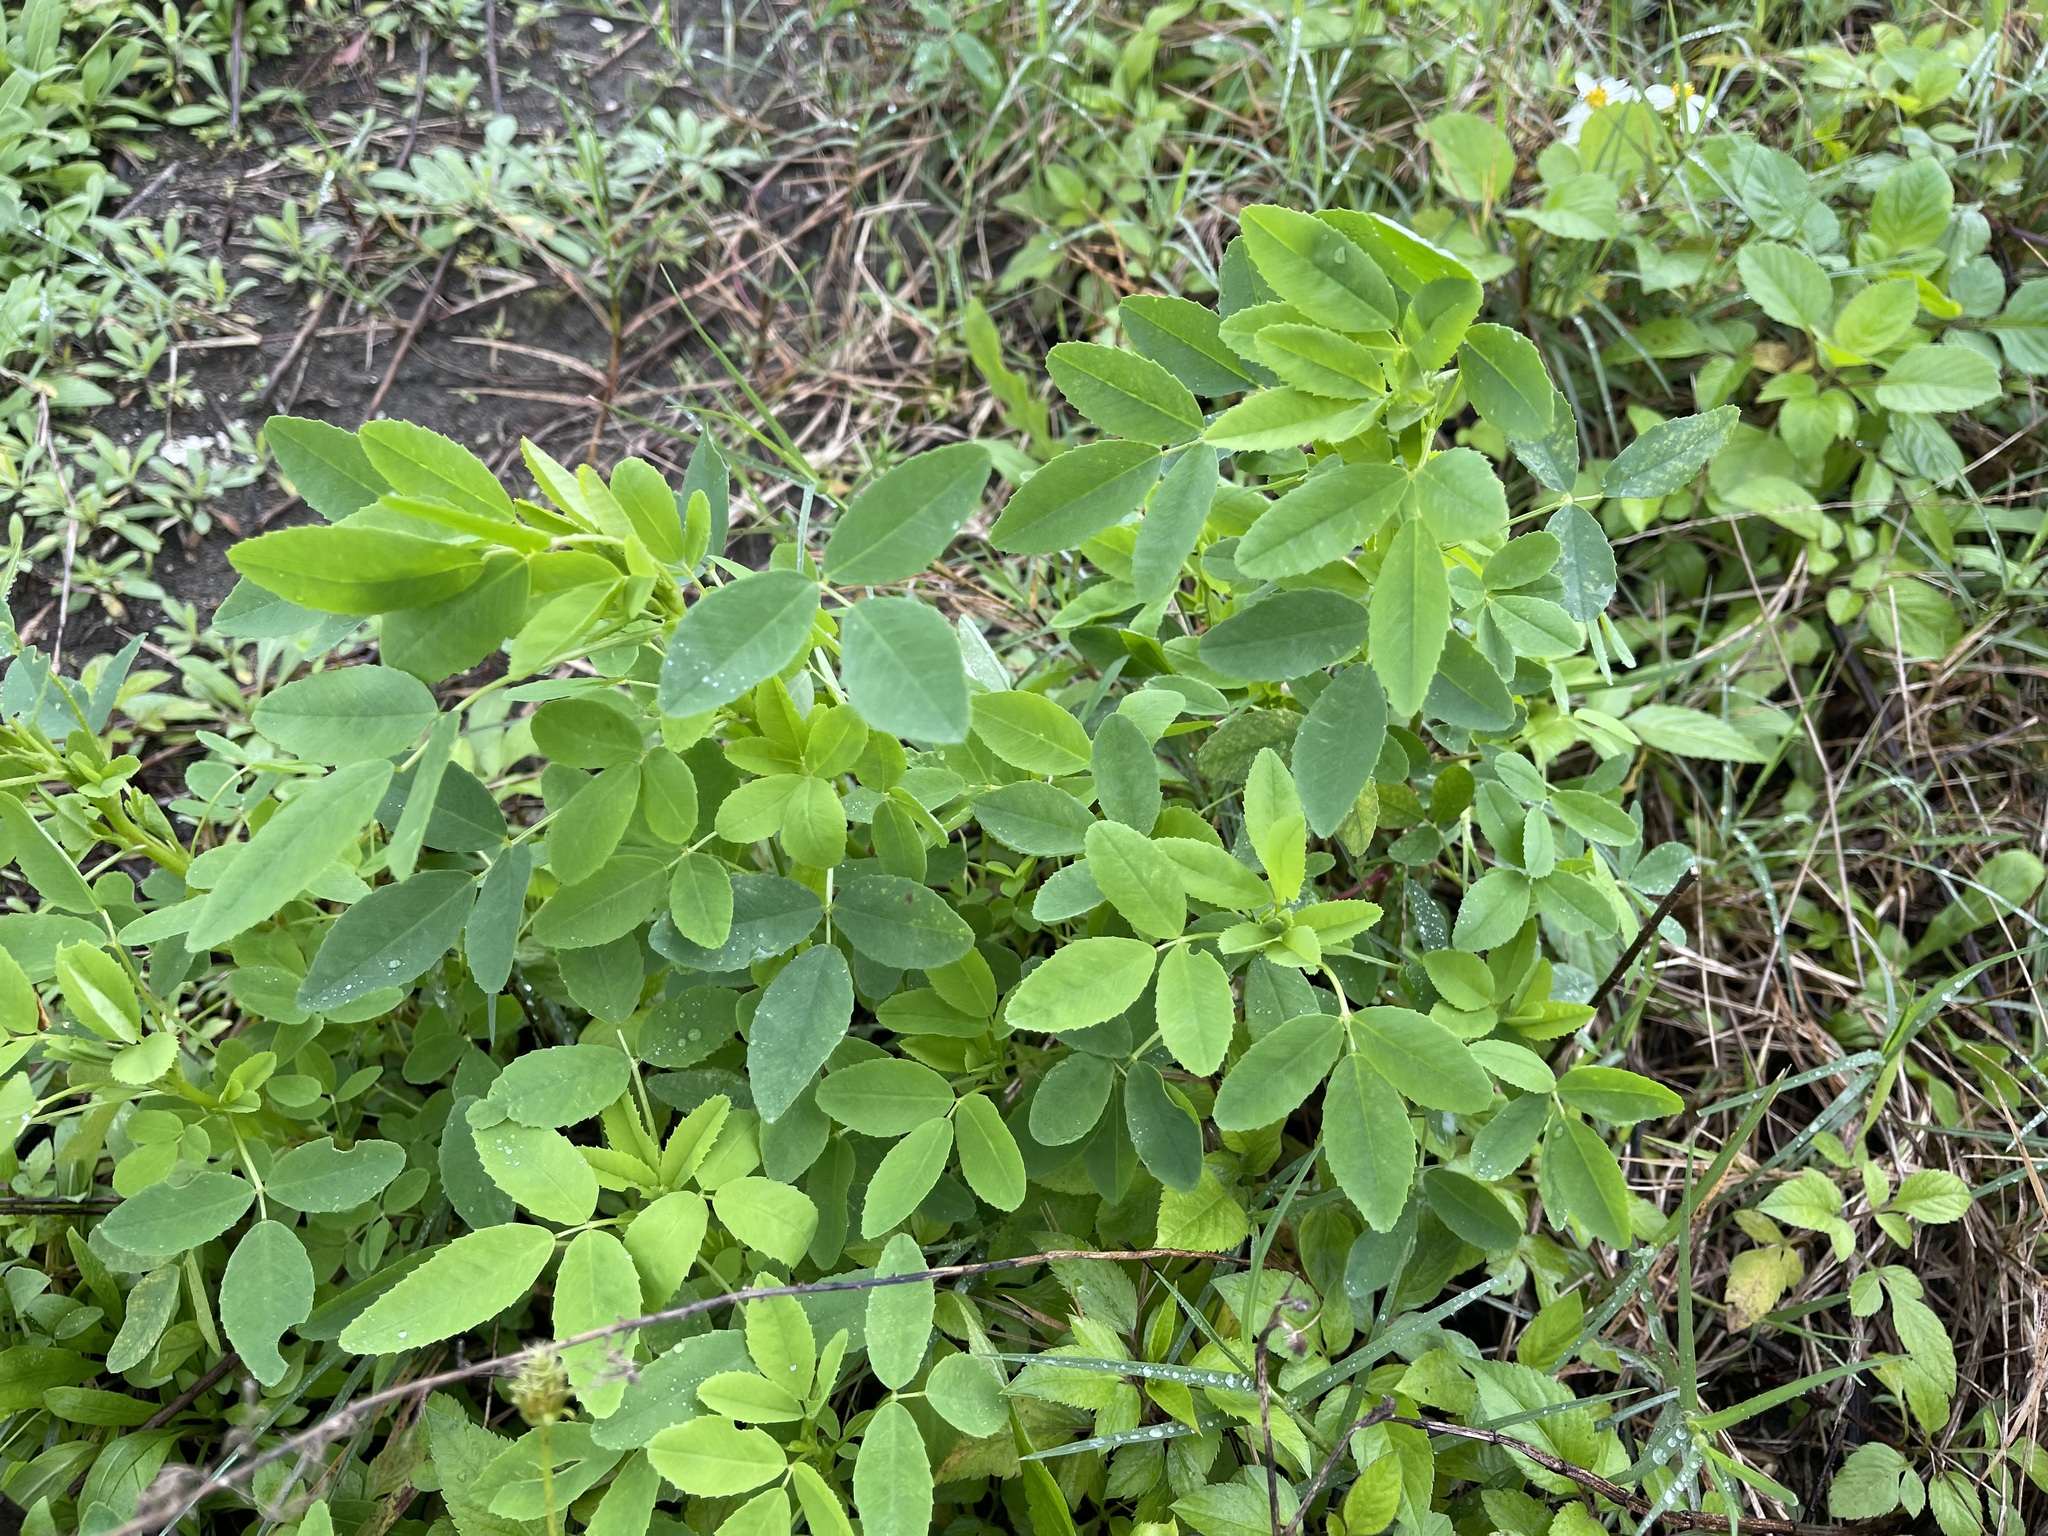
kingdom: Plantae
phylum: Tracheophyta
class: Magnoliopsida
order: Fabales
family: Fabaceae
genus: Melilotus
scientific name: Melilotus indicus
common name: Small melilot
